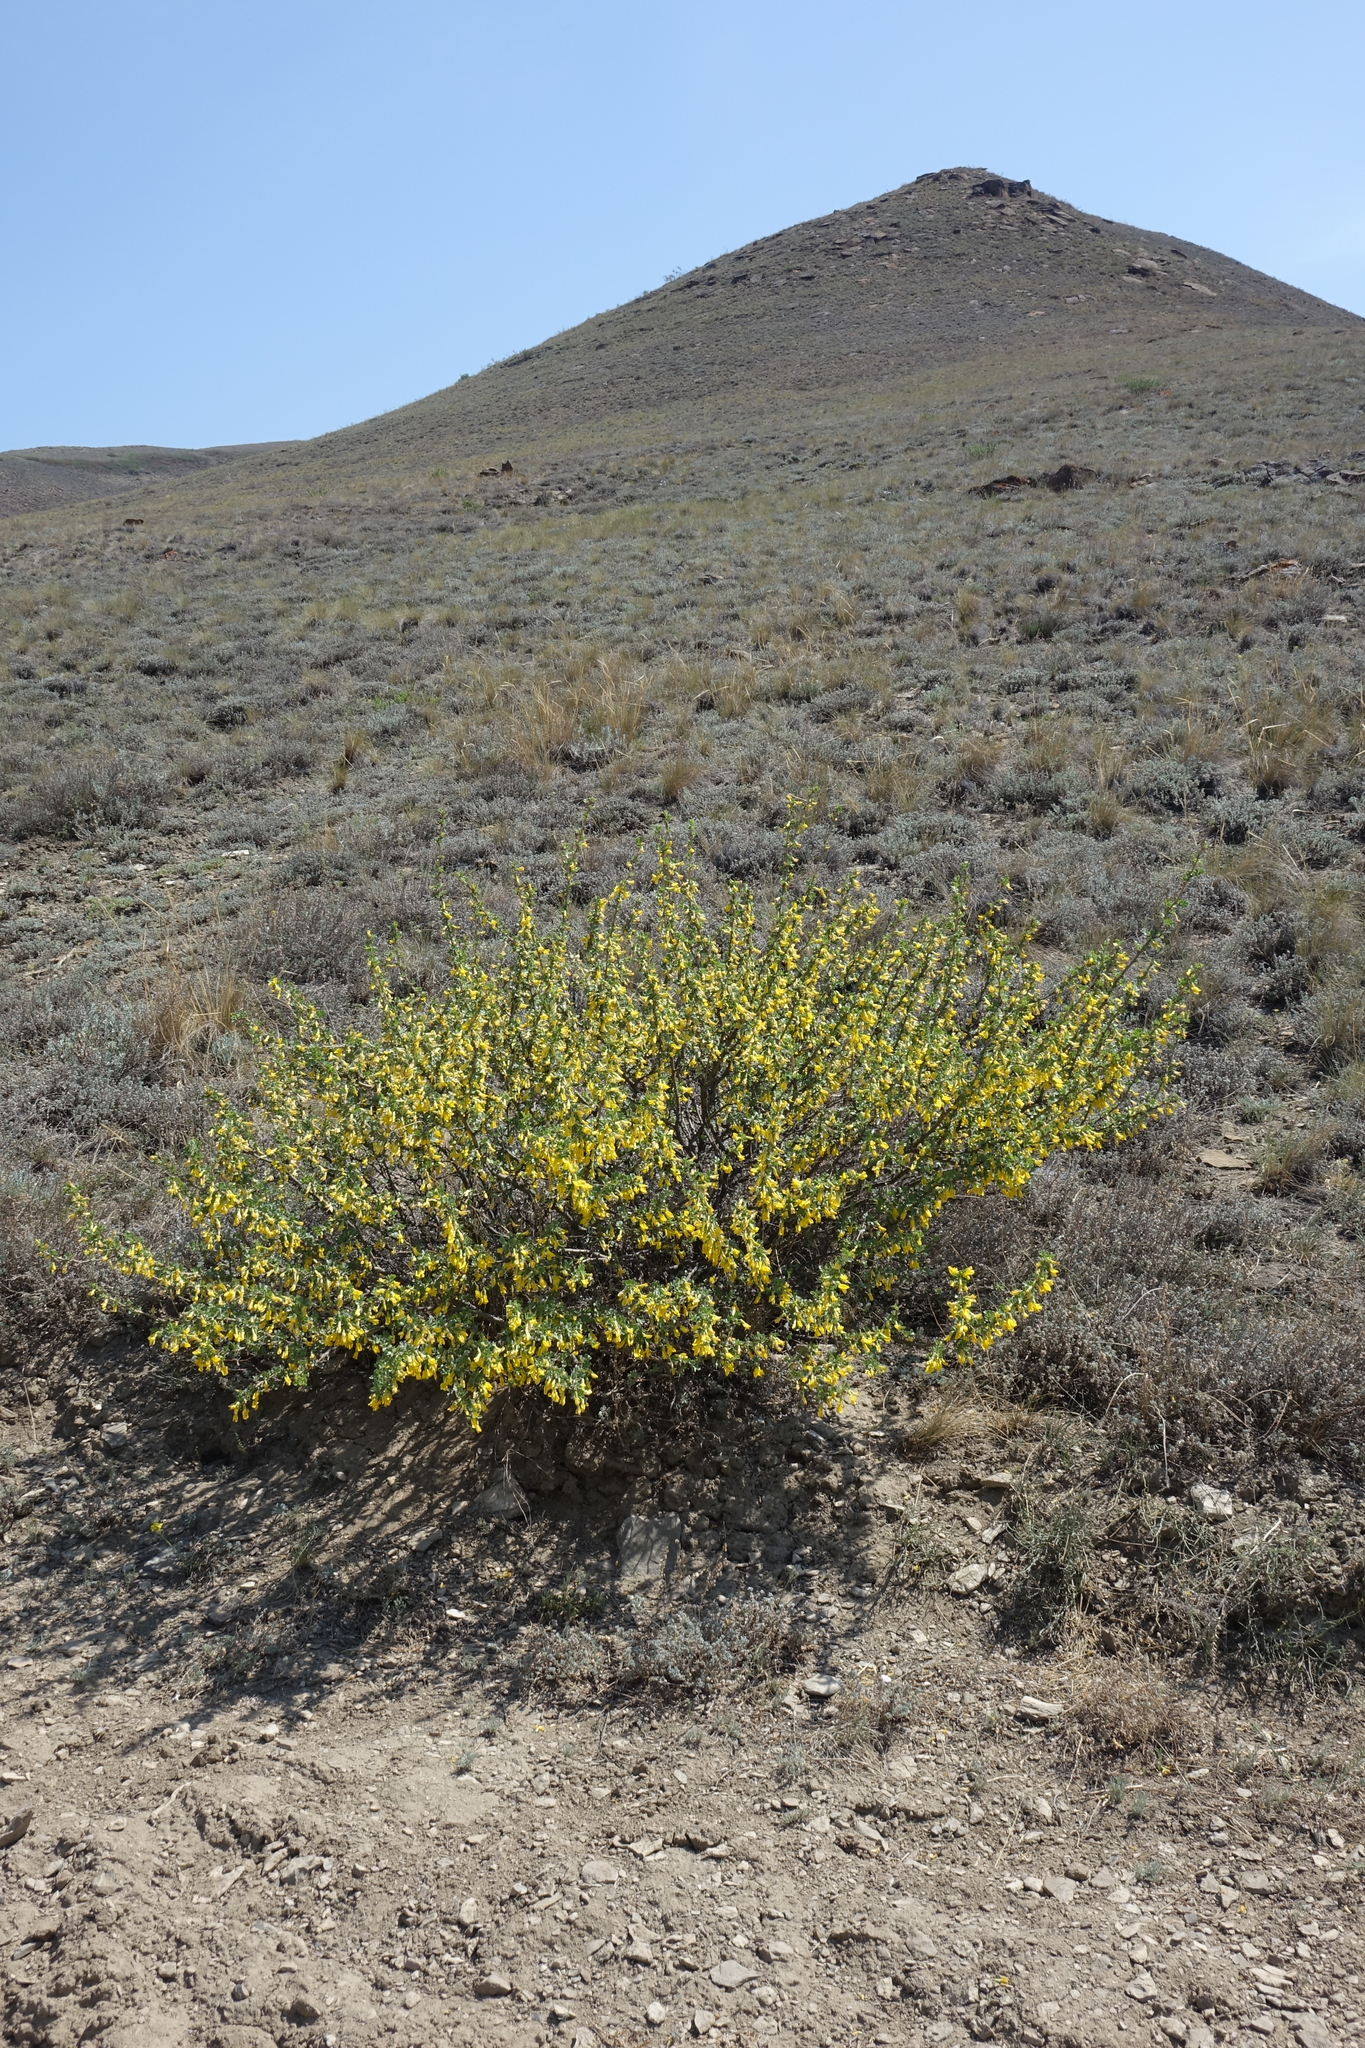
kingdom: Plantae
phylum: Tracheophyta
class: Magnoliopsida
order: Fabales
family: Fabaceae
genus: Caragana
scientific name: Caragana bungei
